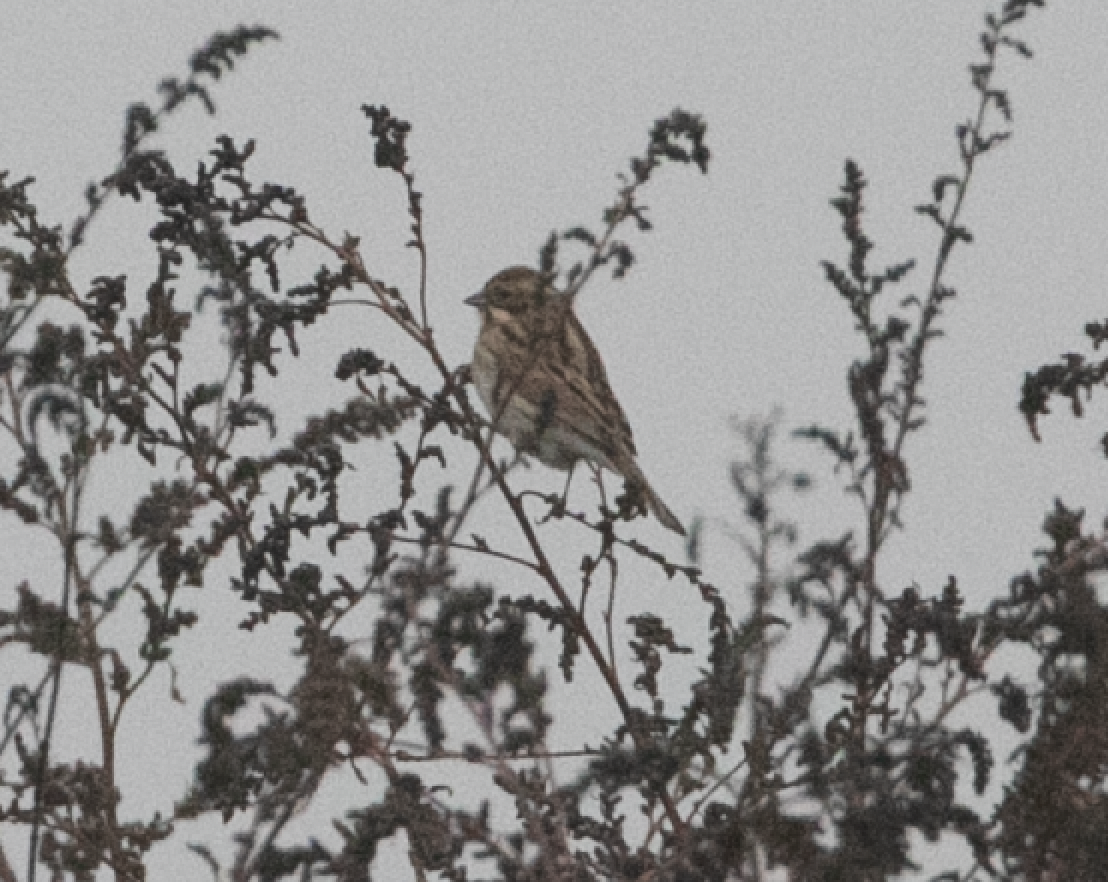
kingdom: Animalia
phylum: Chordata
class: Aves
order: Passeriformes
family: Emberizidae
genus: Emberiza
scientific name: Emberiza schoeniclus
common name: Reed bunting
